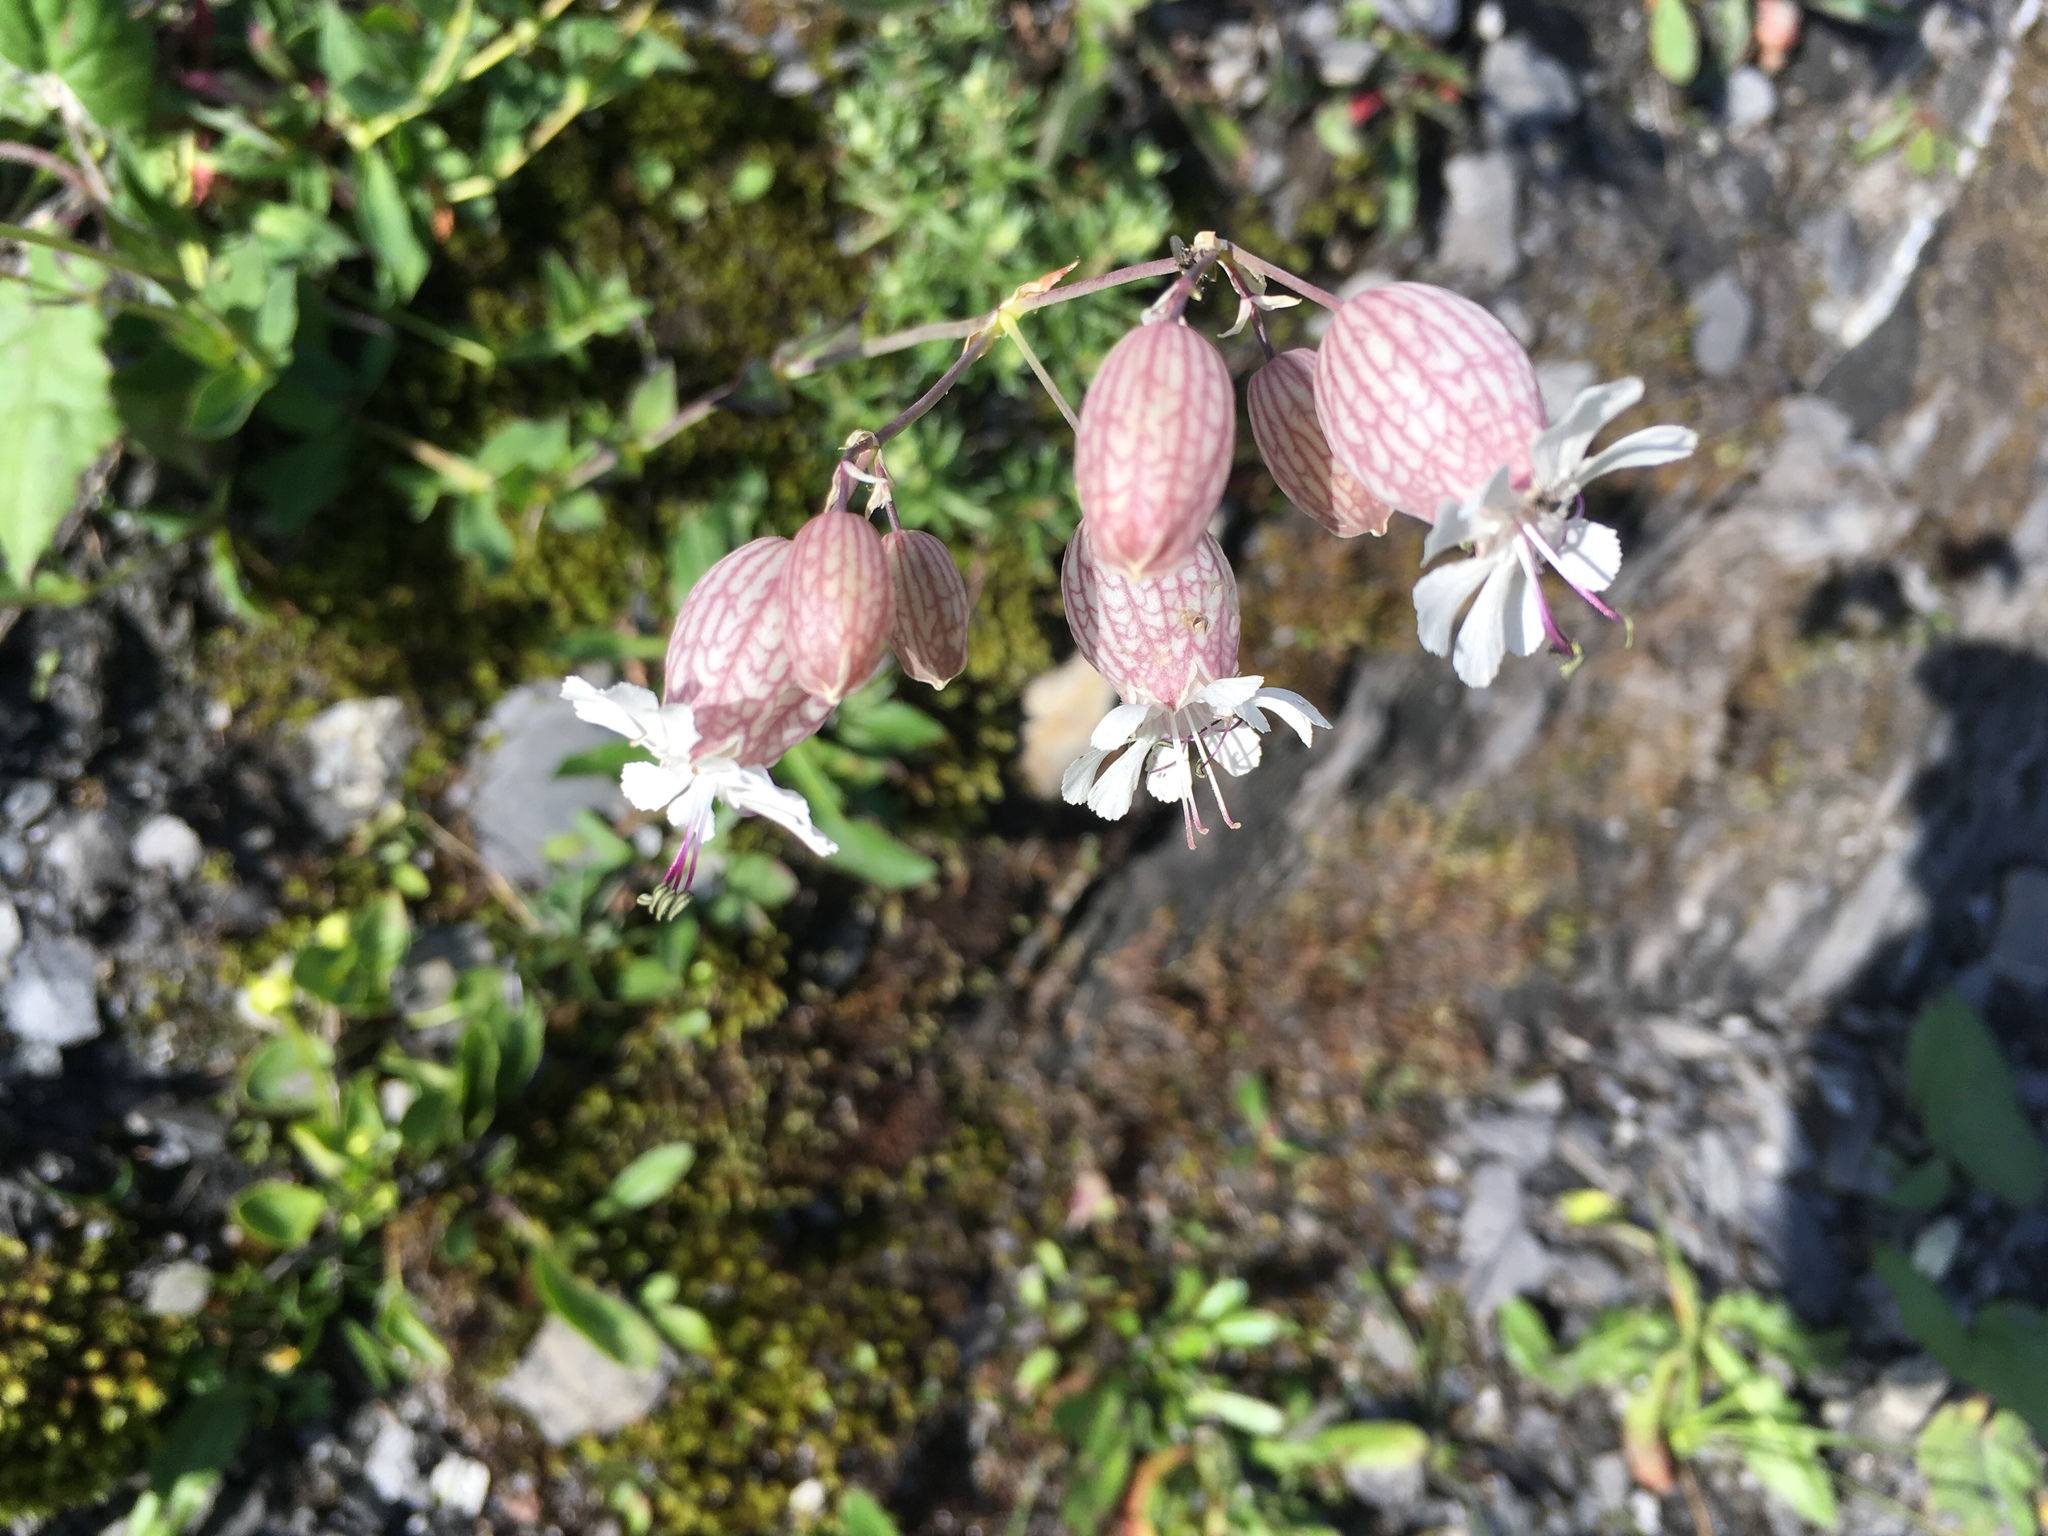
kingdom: Plantae
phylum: Tracheophyta
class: Magnoliopsida
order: Caryophyllales
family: Caryophyllaceae
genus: Silene
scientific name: Silene vulgaris
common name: Bladder campion
